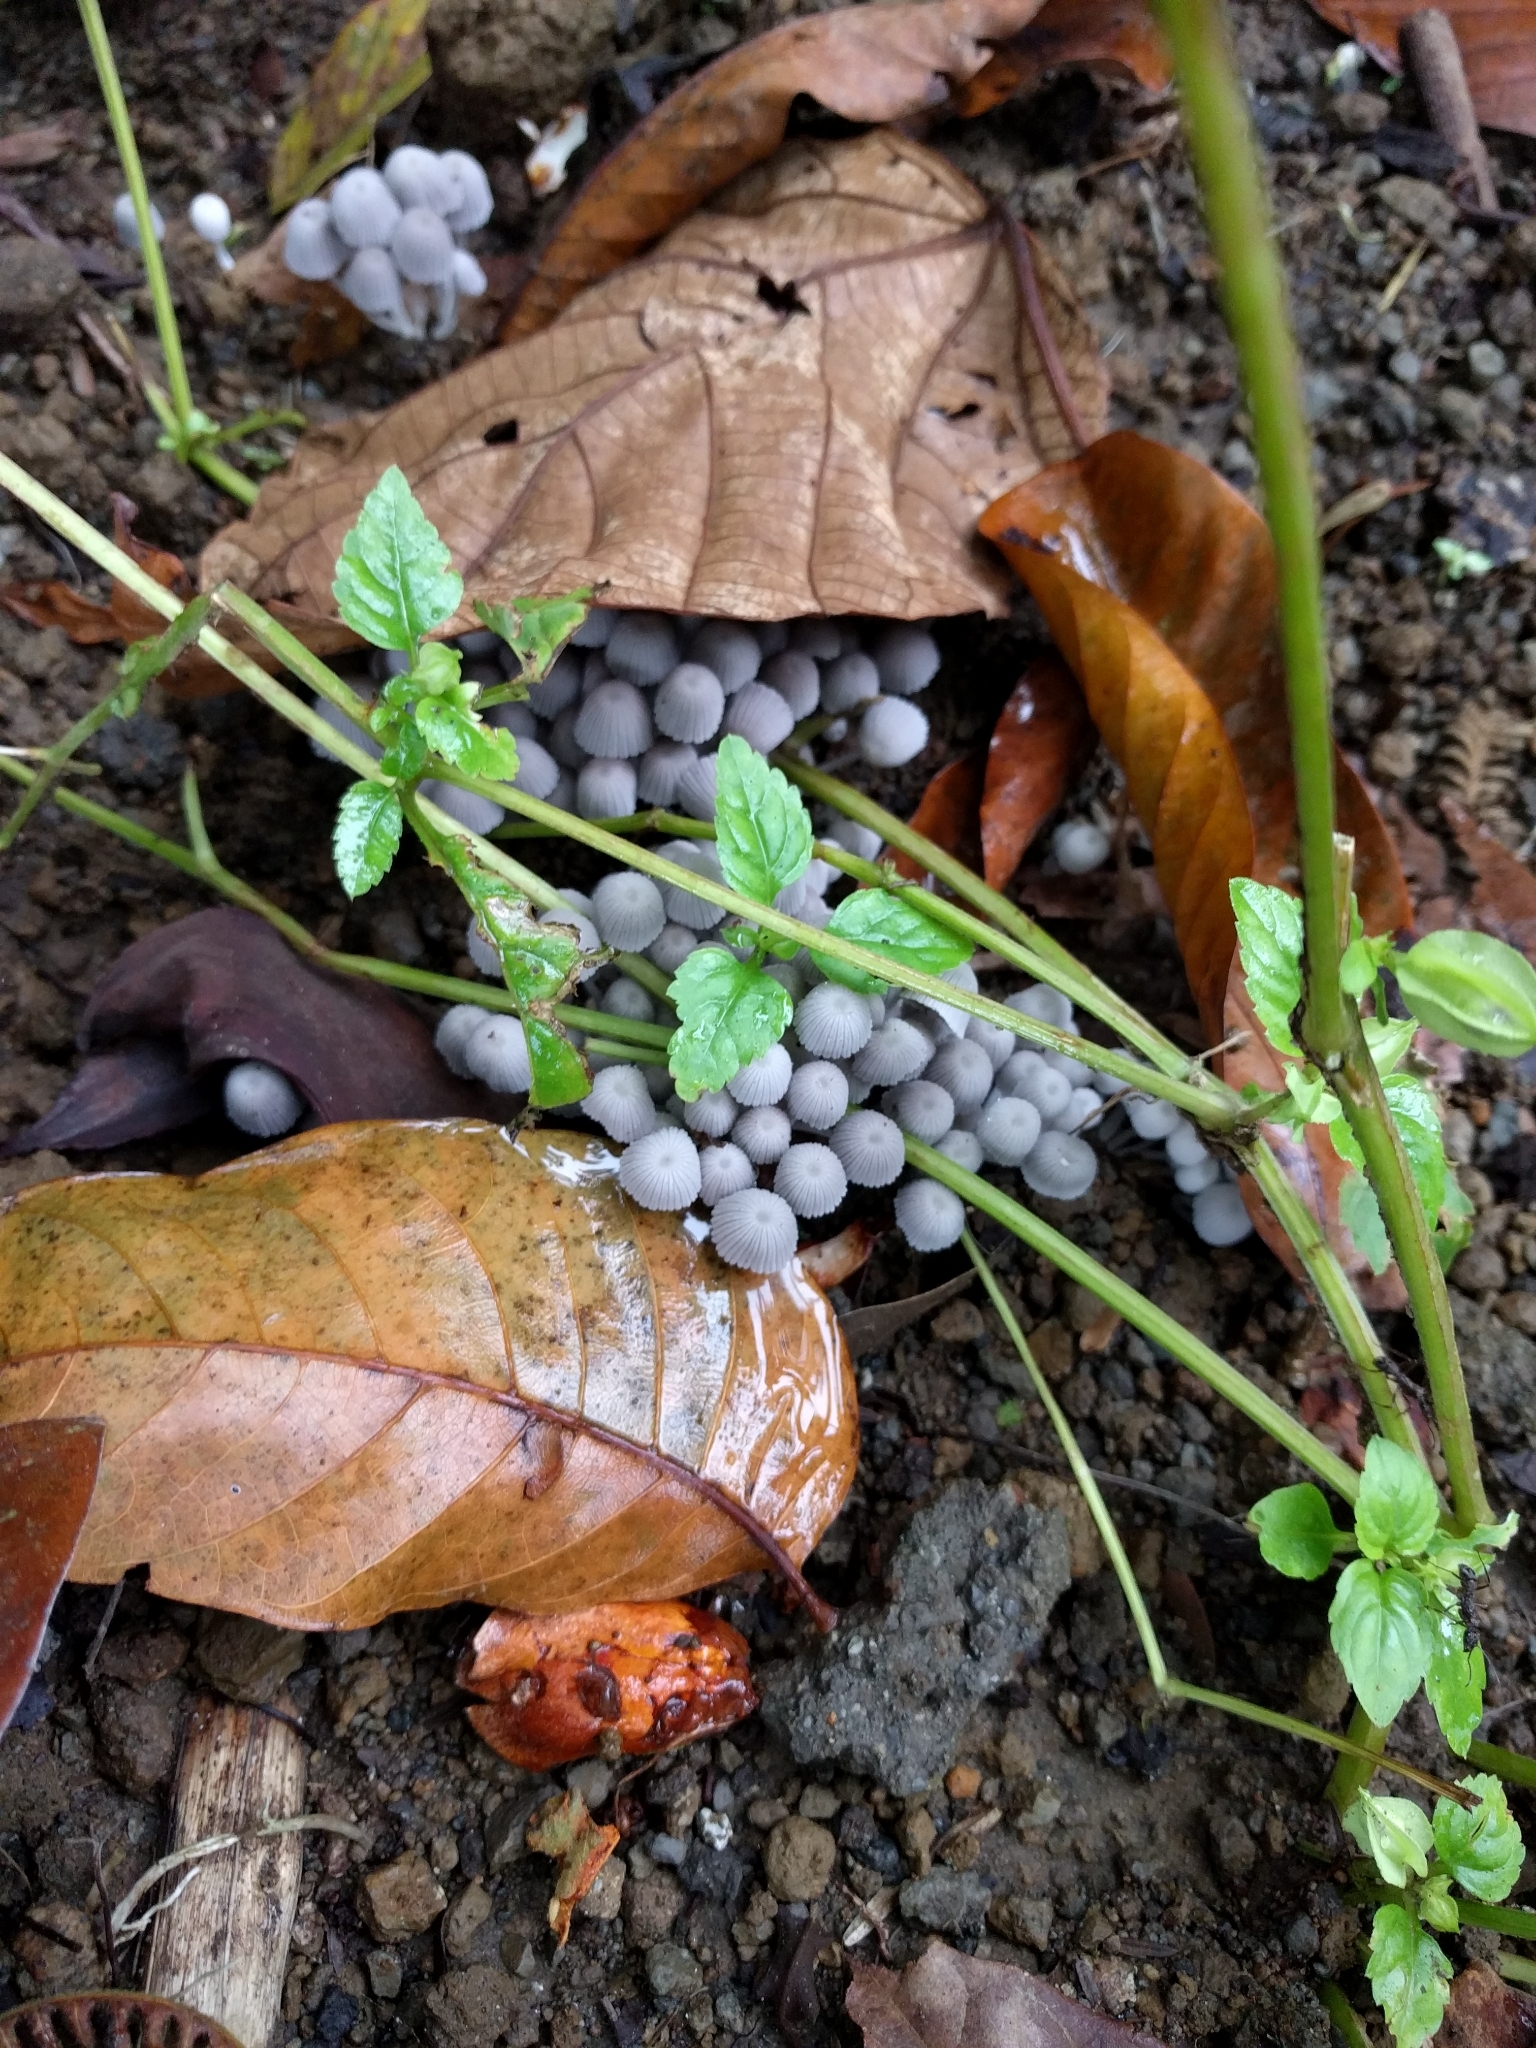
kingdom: Fungi
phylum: Basidiomycota
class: Agaricomycetes
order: Agaricales
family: Psathyrellaceae
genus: Coprinellus
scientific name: Coprinellus disseminatus
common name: Fairies' bonnets
